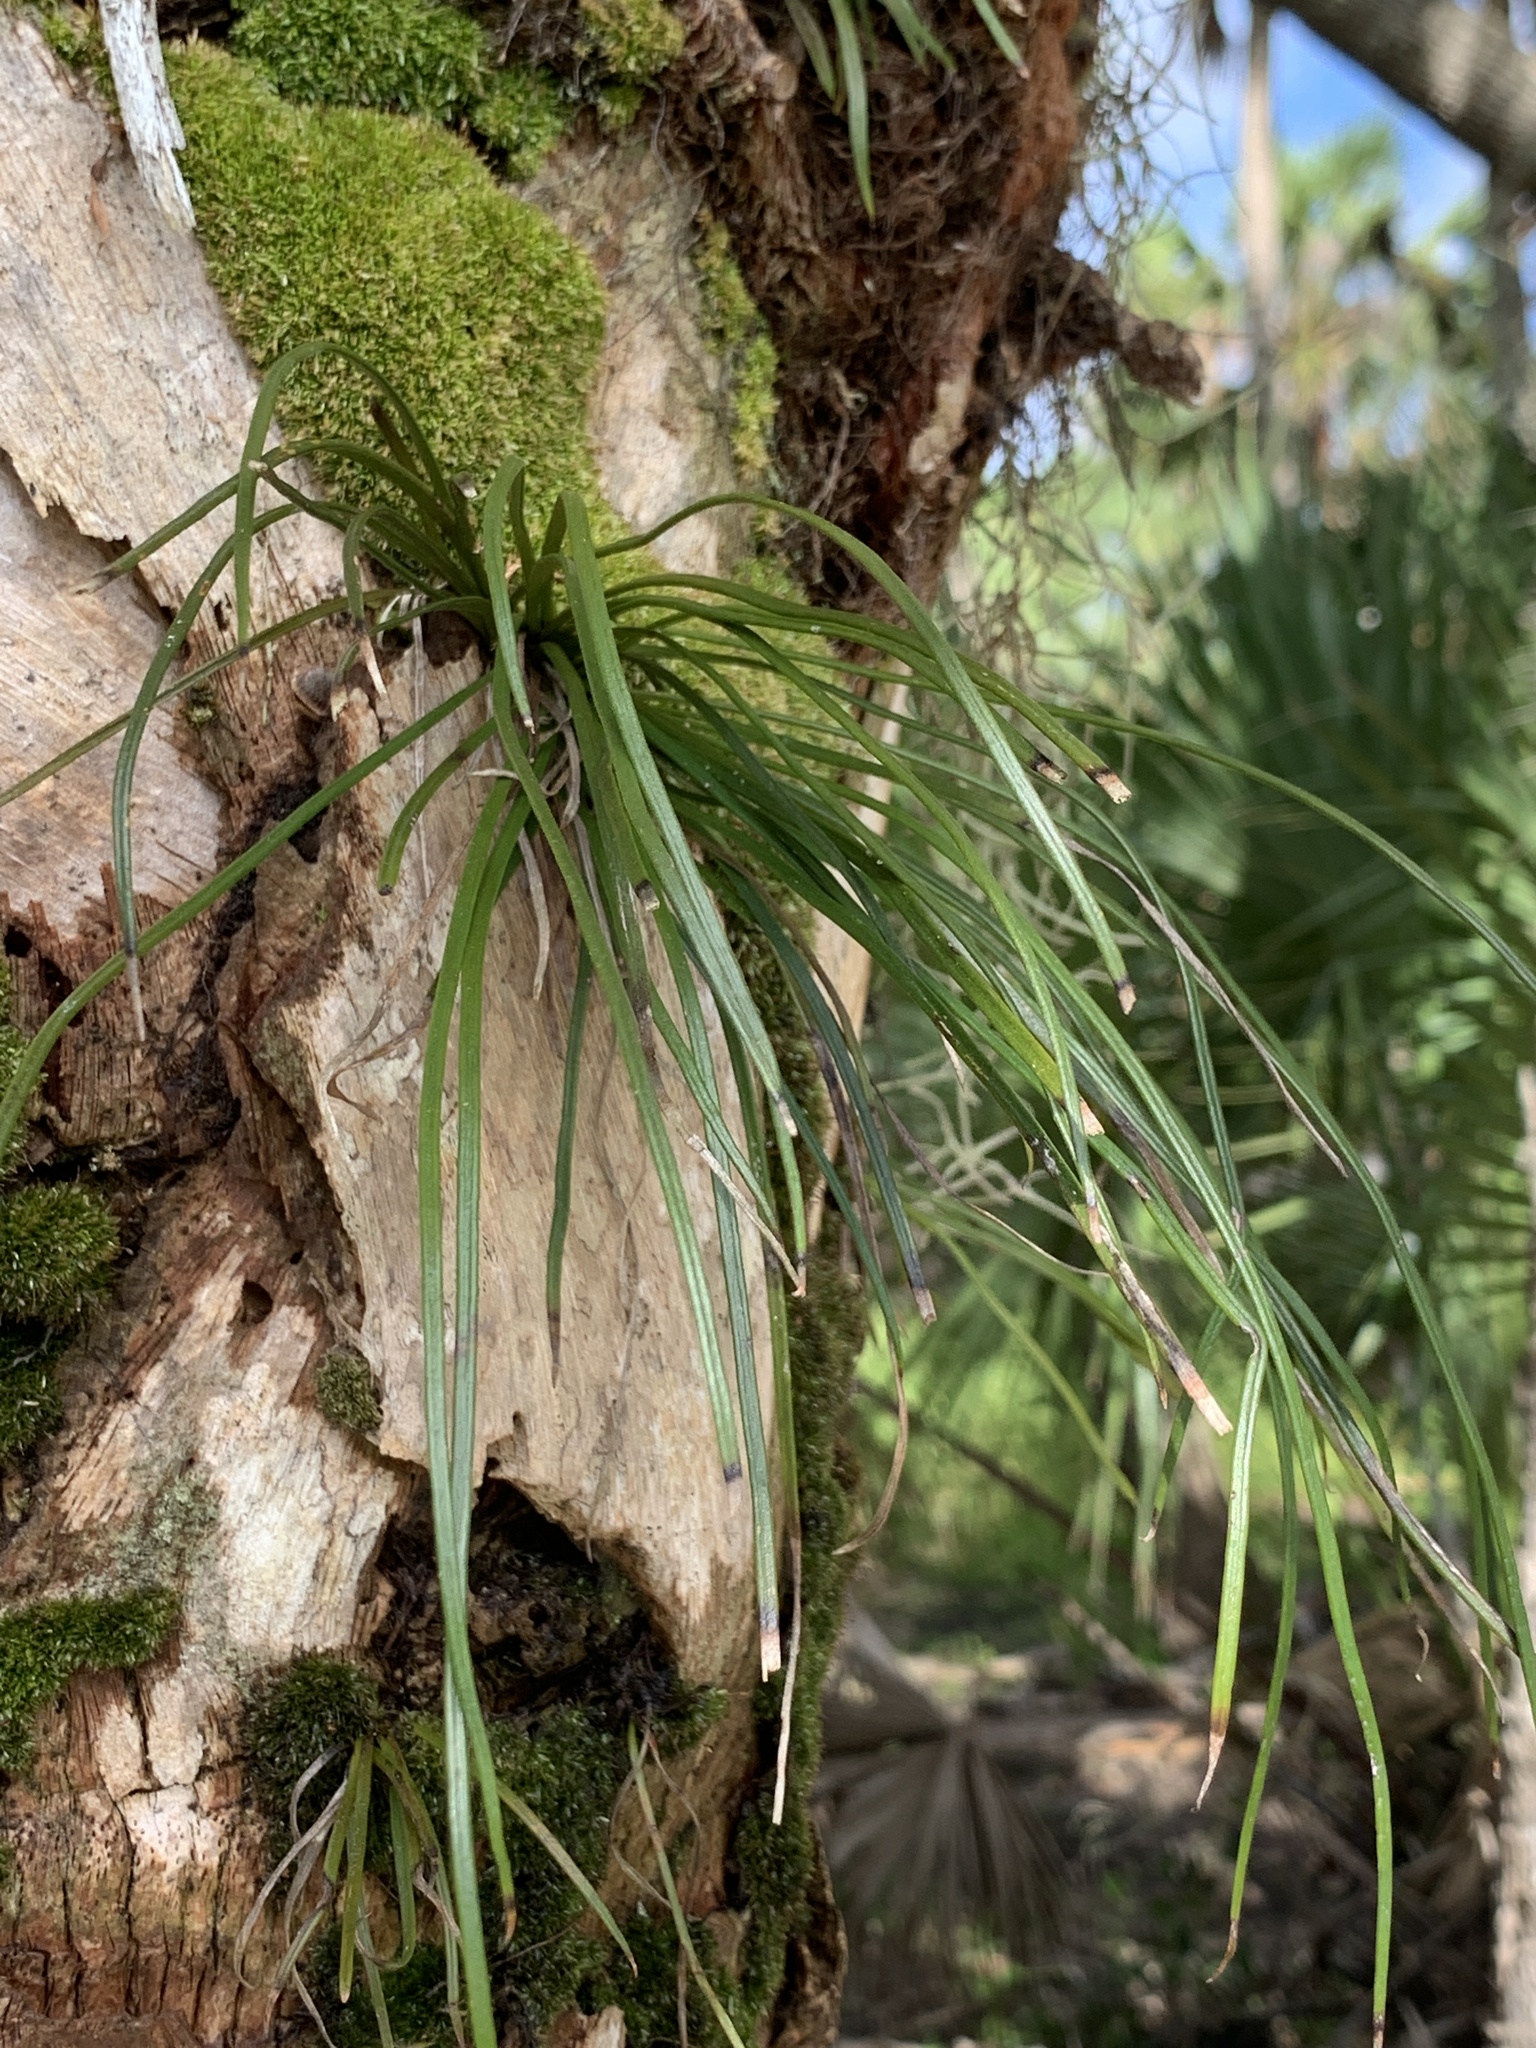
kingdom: Plantae
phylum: Tracheophyta
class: Polypodiopsida
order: Polypodiales
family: Pteridaceae
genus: Vittaria
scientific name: Vittaria lineata
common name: Shoestring fern
